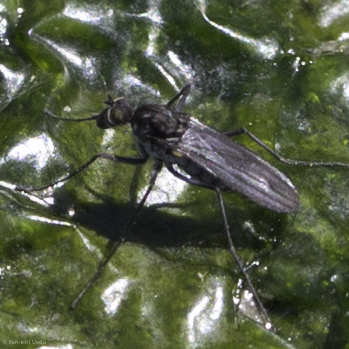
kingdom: Animalia
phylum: Arthropoda
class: Insecta
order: Diptera
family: Dolichopodidae
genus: Thambemyia
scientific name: Thambemyia borealis
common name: Fly
